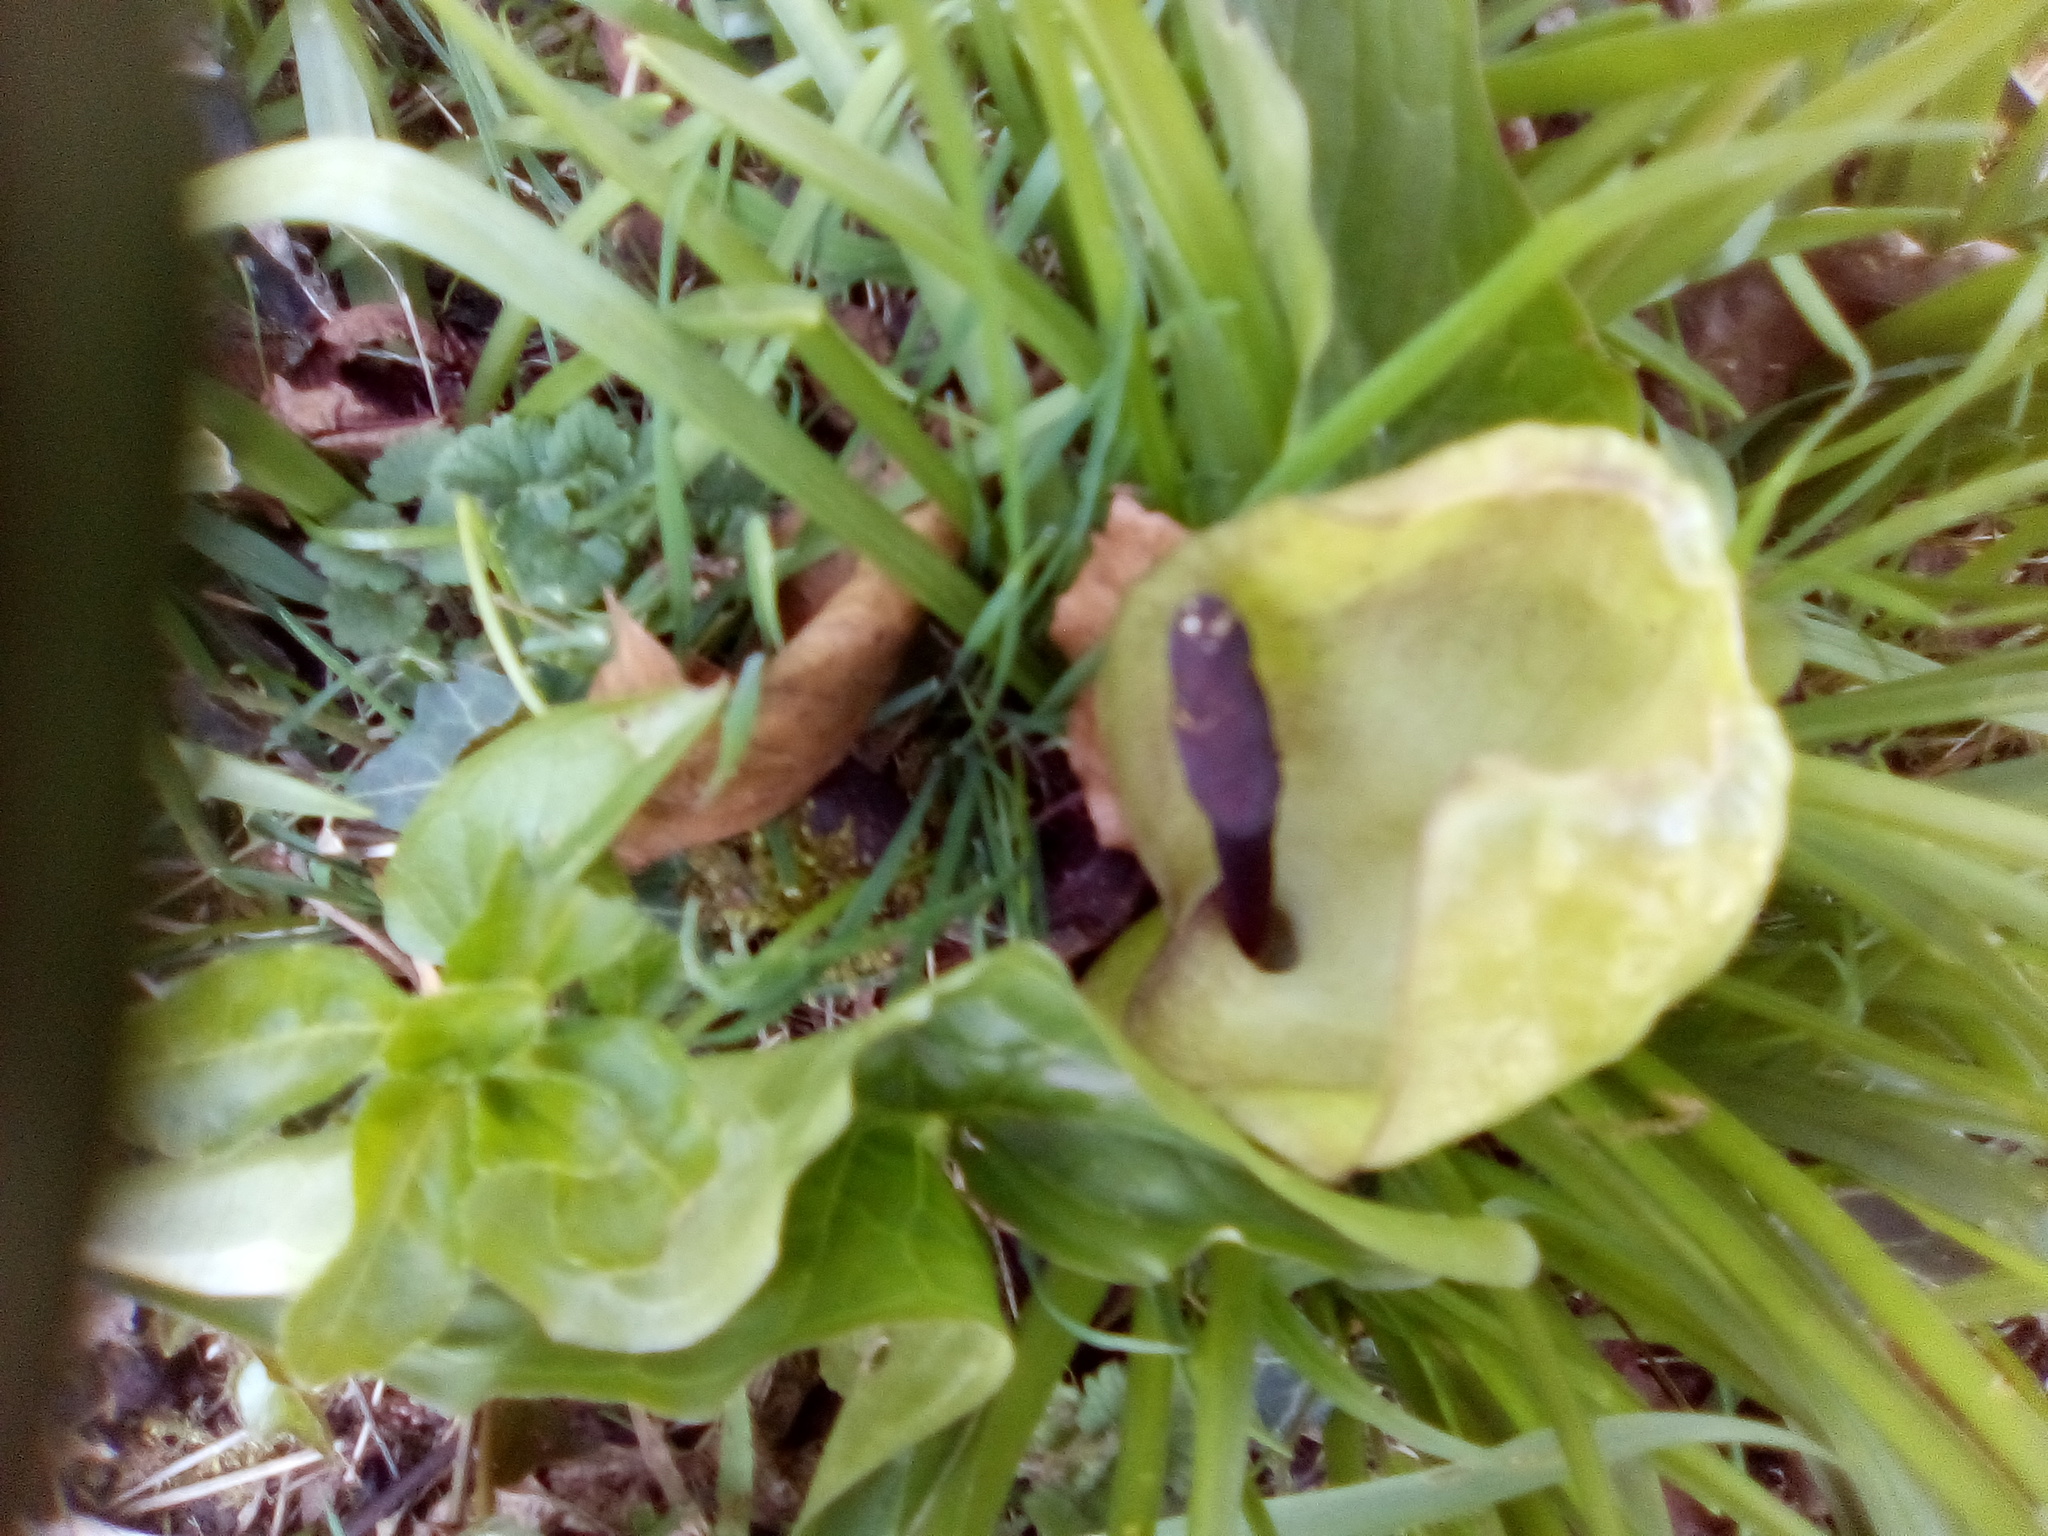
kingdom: Plantae
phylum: Tracheophyta
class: Liliopsida
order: Alismatales
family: Araceae
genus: Arum
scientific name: Arum maculatum
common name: Lords-and-ladies
